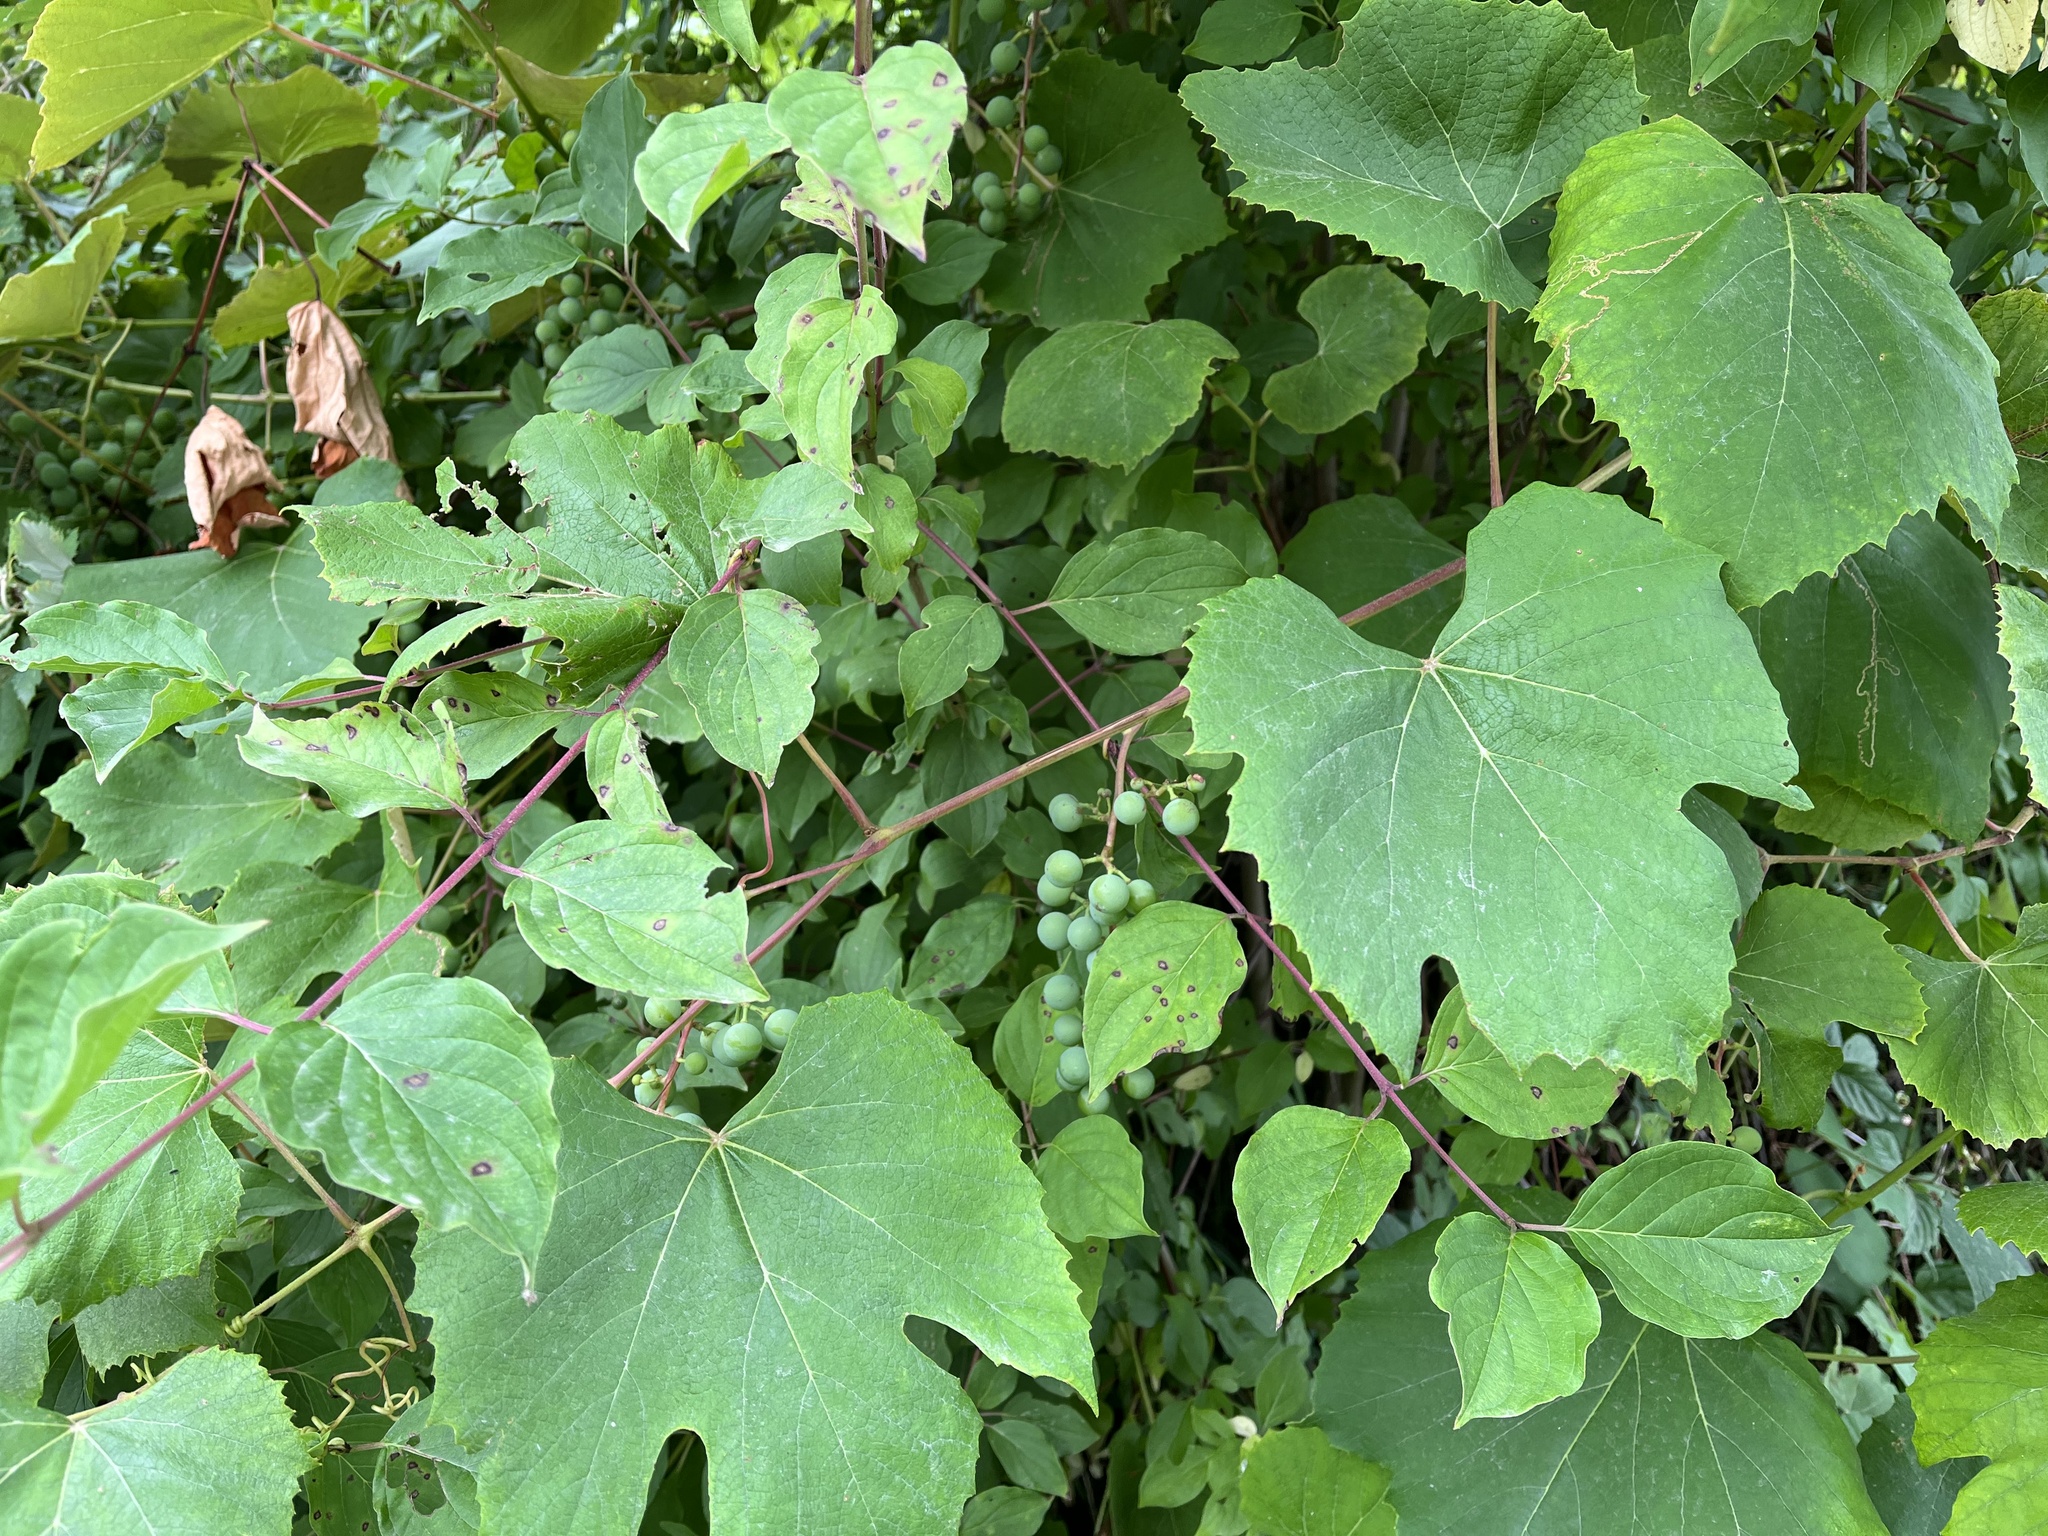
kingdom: Plantae
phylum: Tracheophyta
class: Magnoliopsida
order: Vitales
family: Vitaceae
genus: Vitis
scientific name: Vitis vinifera
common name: Grape-vine
